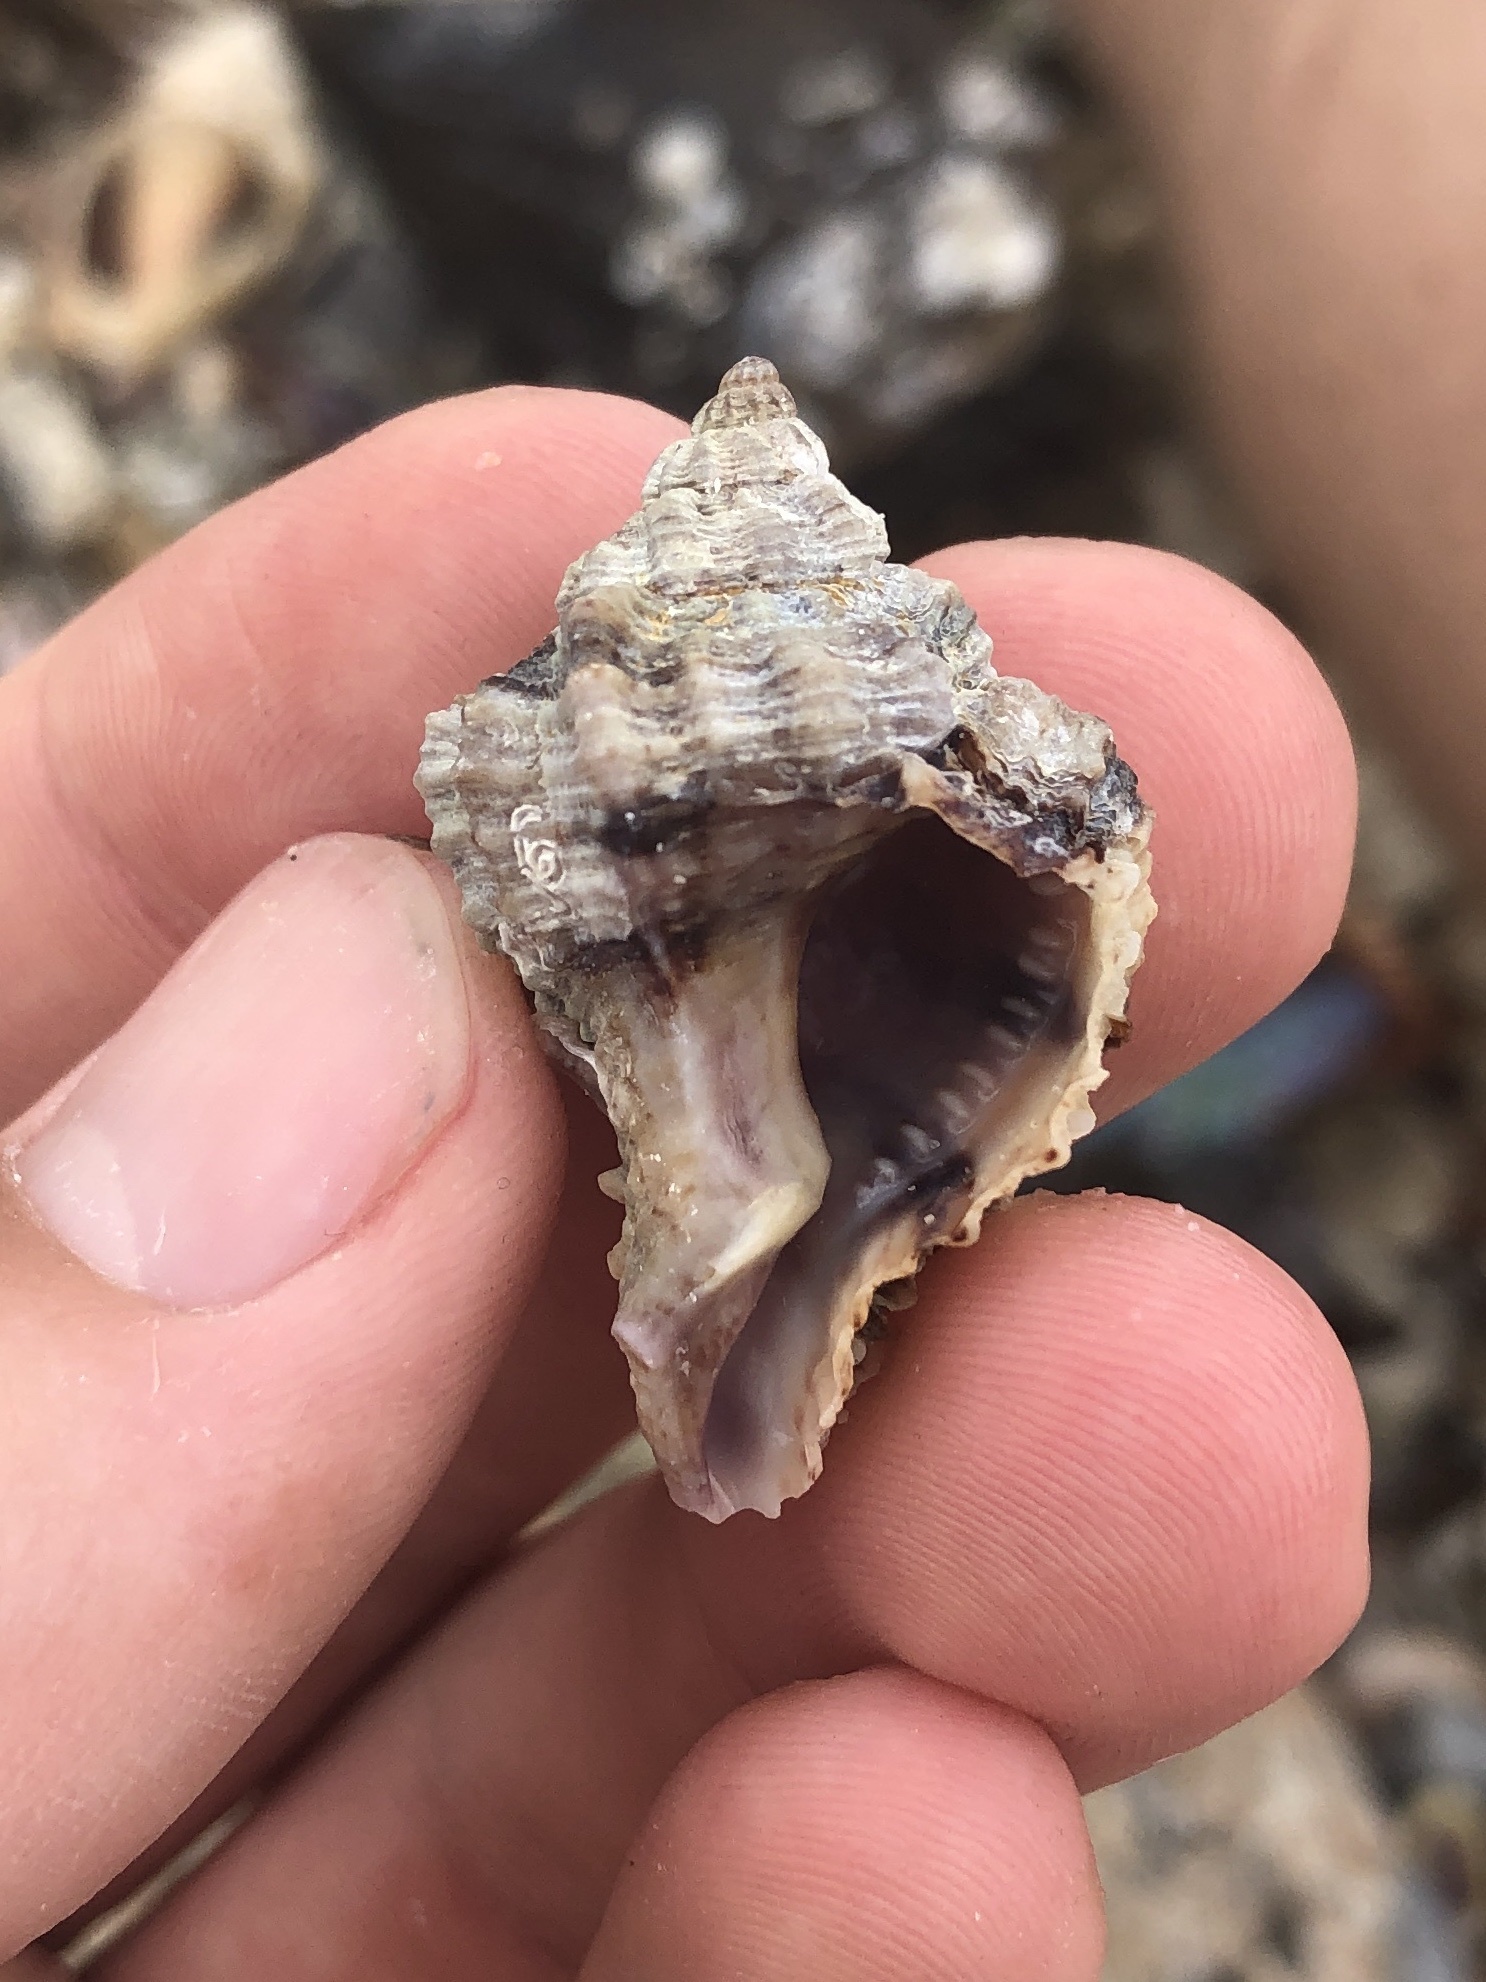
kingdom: Animalia
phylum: Mollusca
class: Gastropoda
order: Neogastropoda
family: Muricidae
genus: Phyllonotus
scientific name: Phyllonotus pomum
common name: Apple murex
